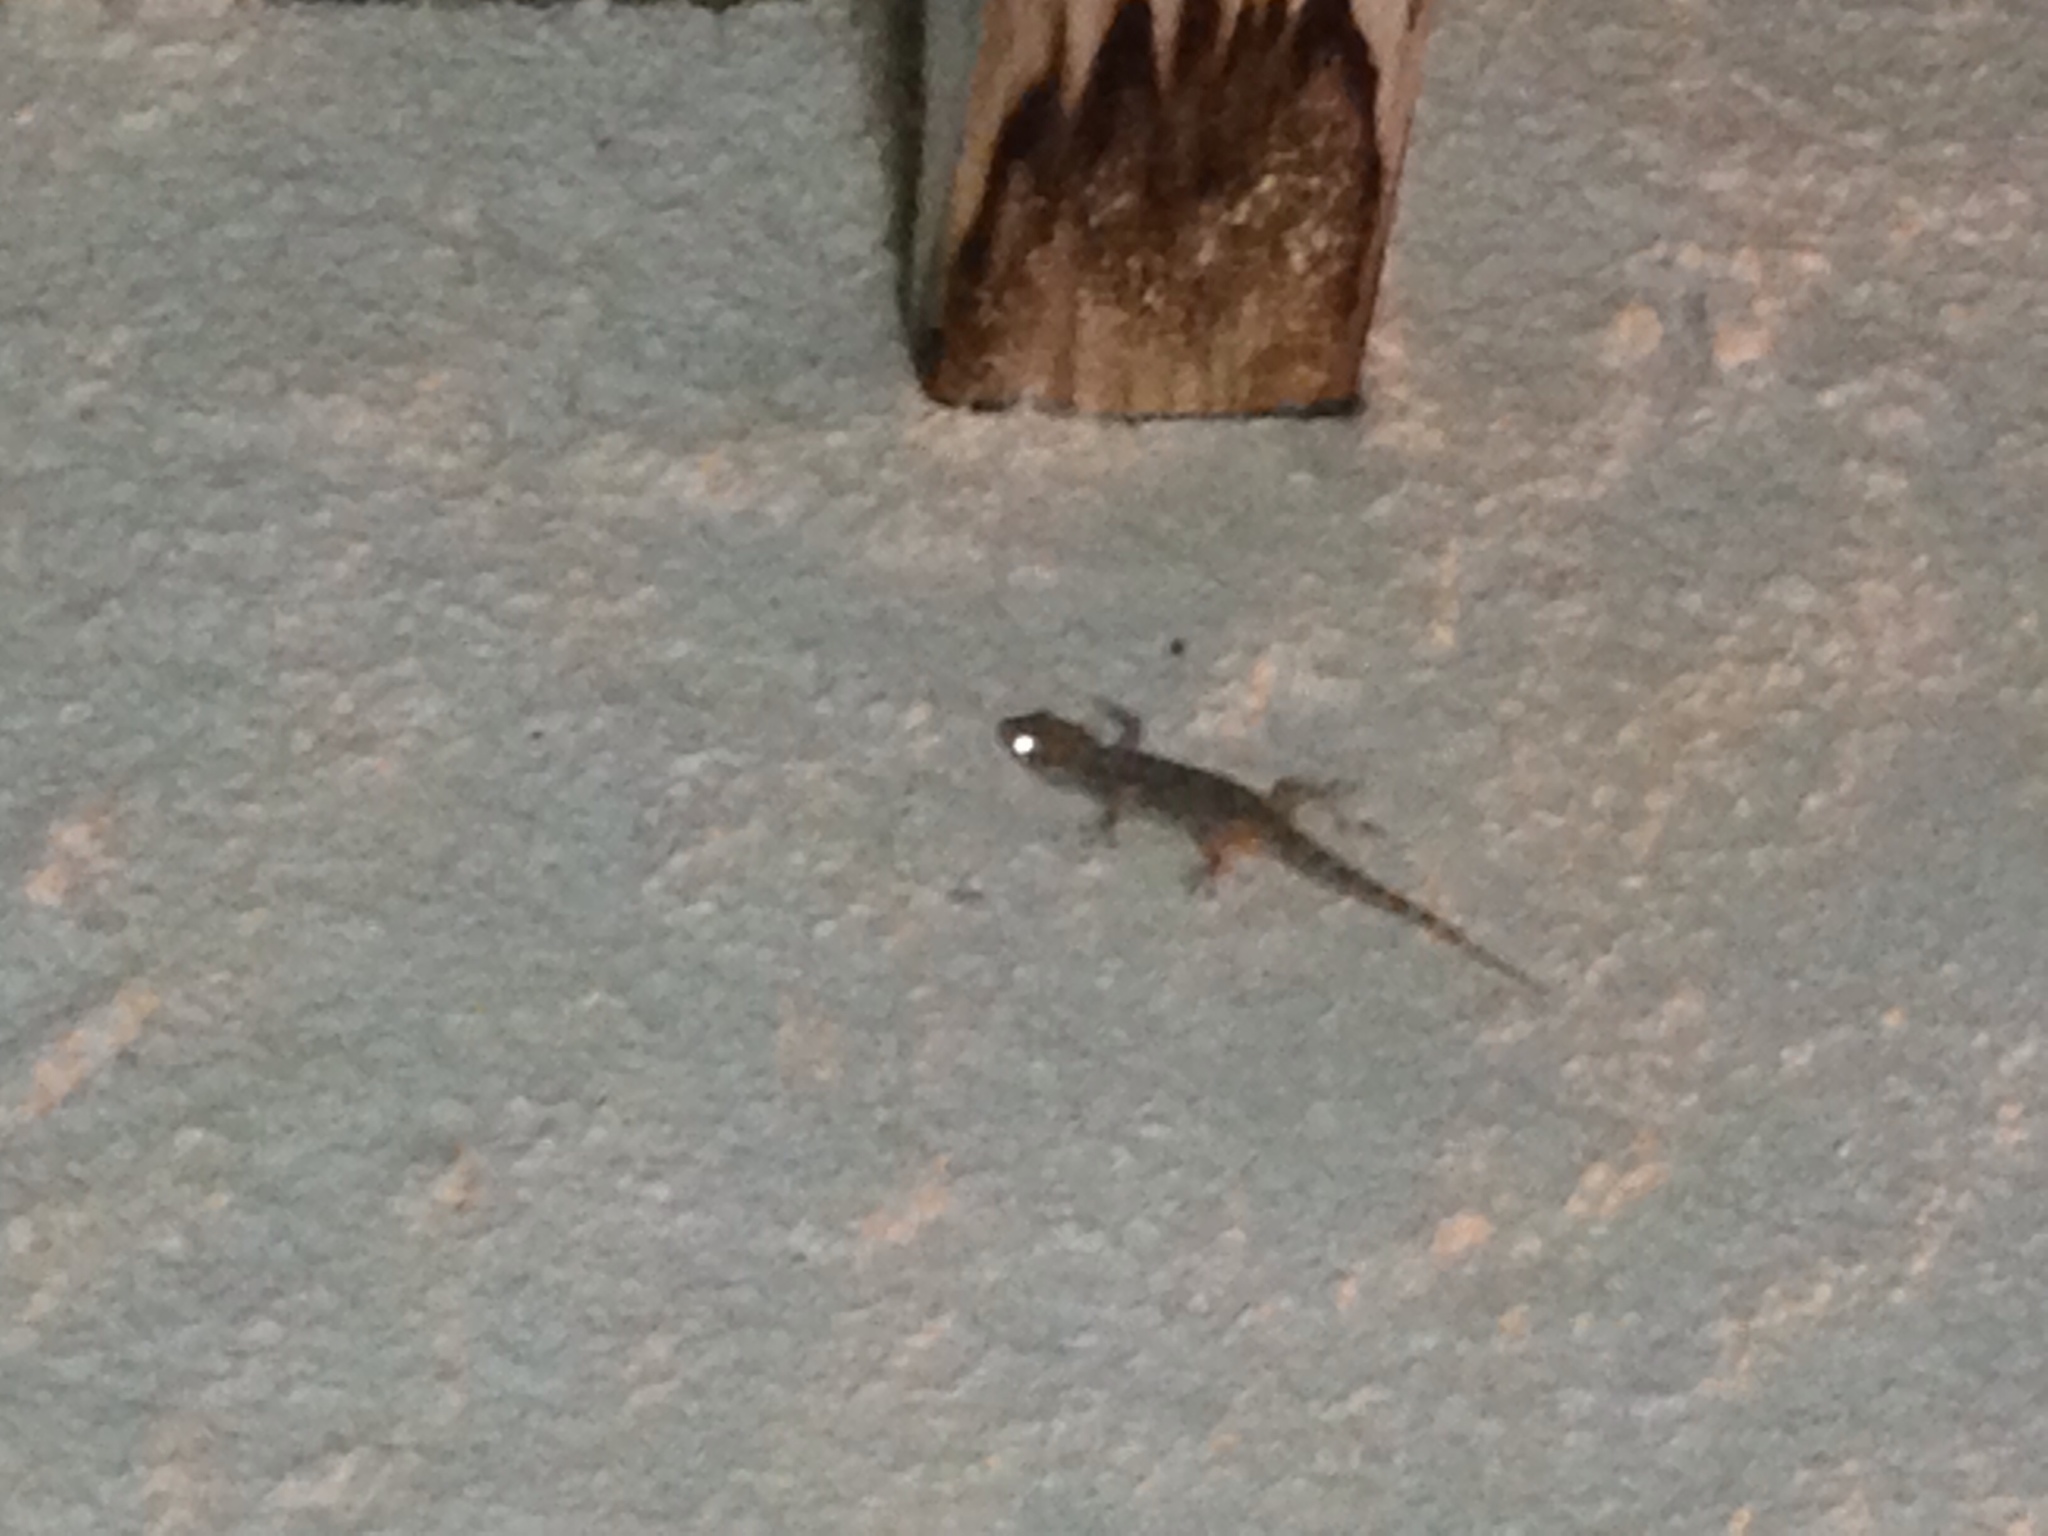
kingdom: Animalia
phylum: Chordata
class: Squamata
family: Phyllodactylidae
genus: Tarentola
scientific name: Tarentola mauritanica
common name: Moorish gecko
